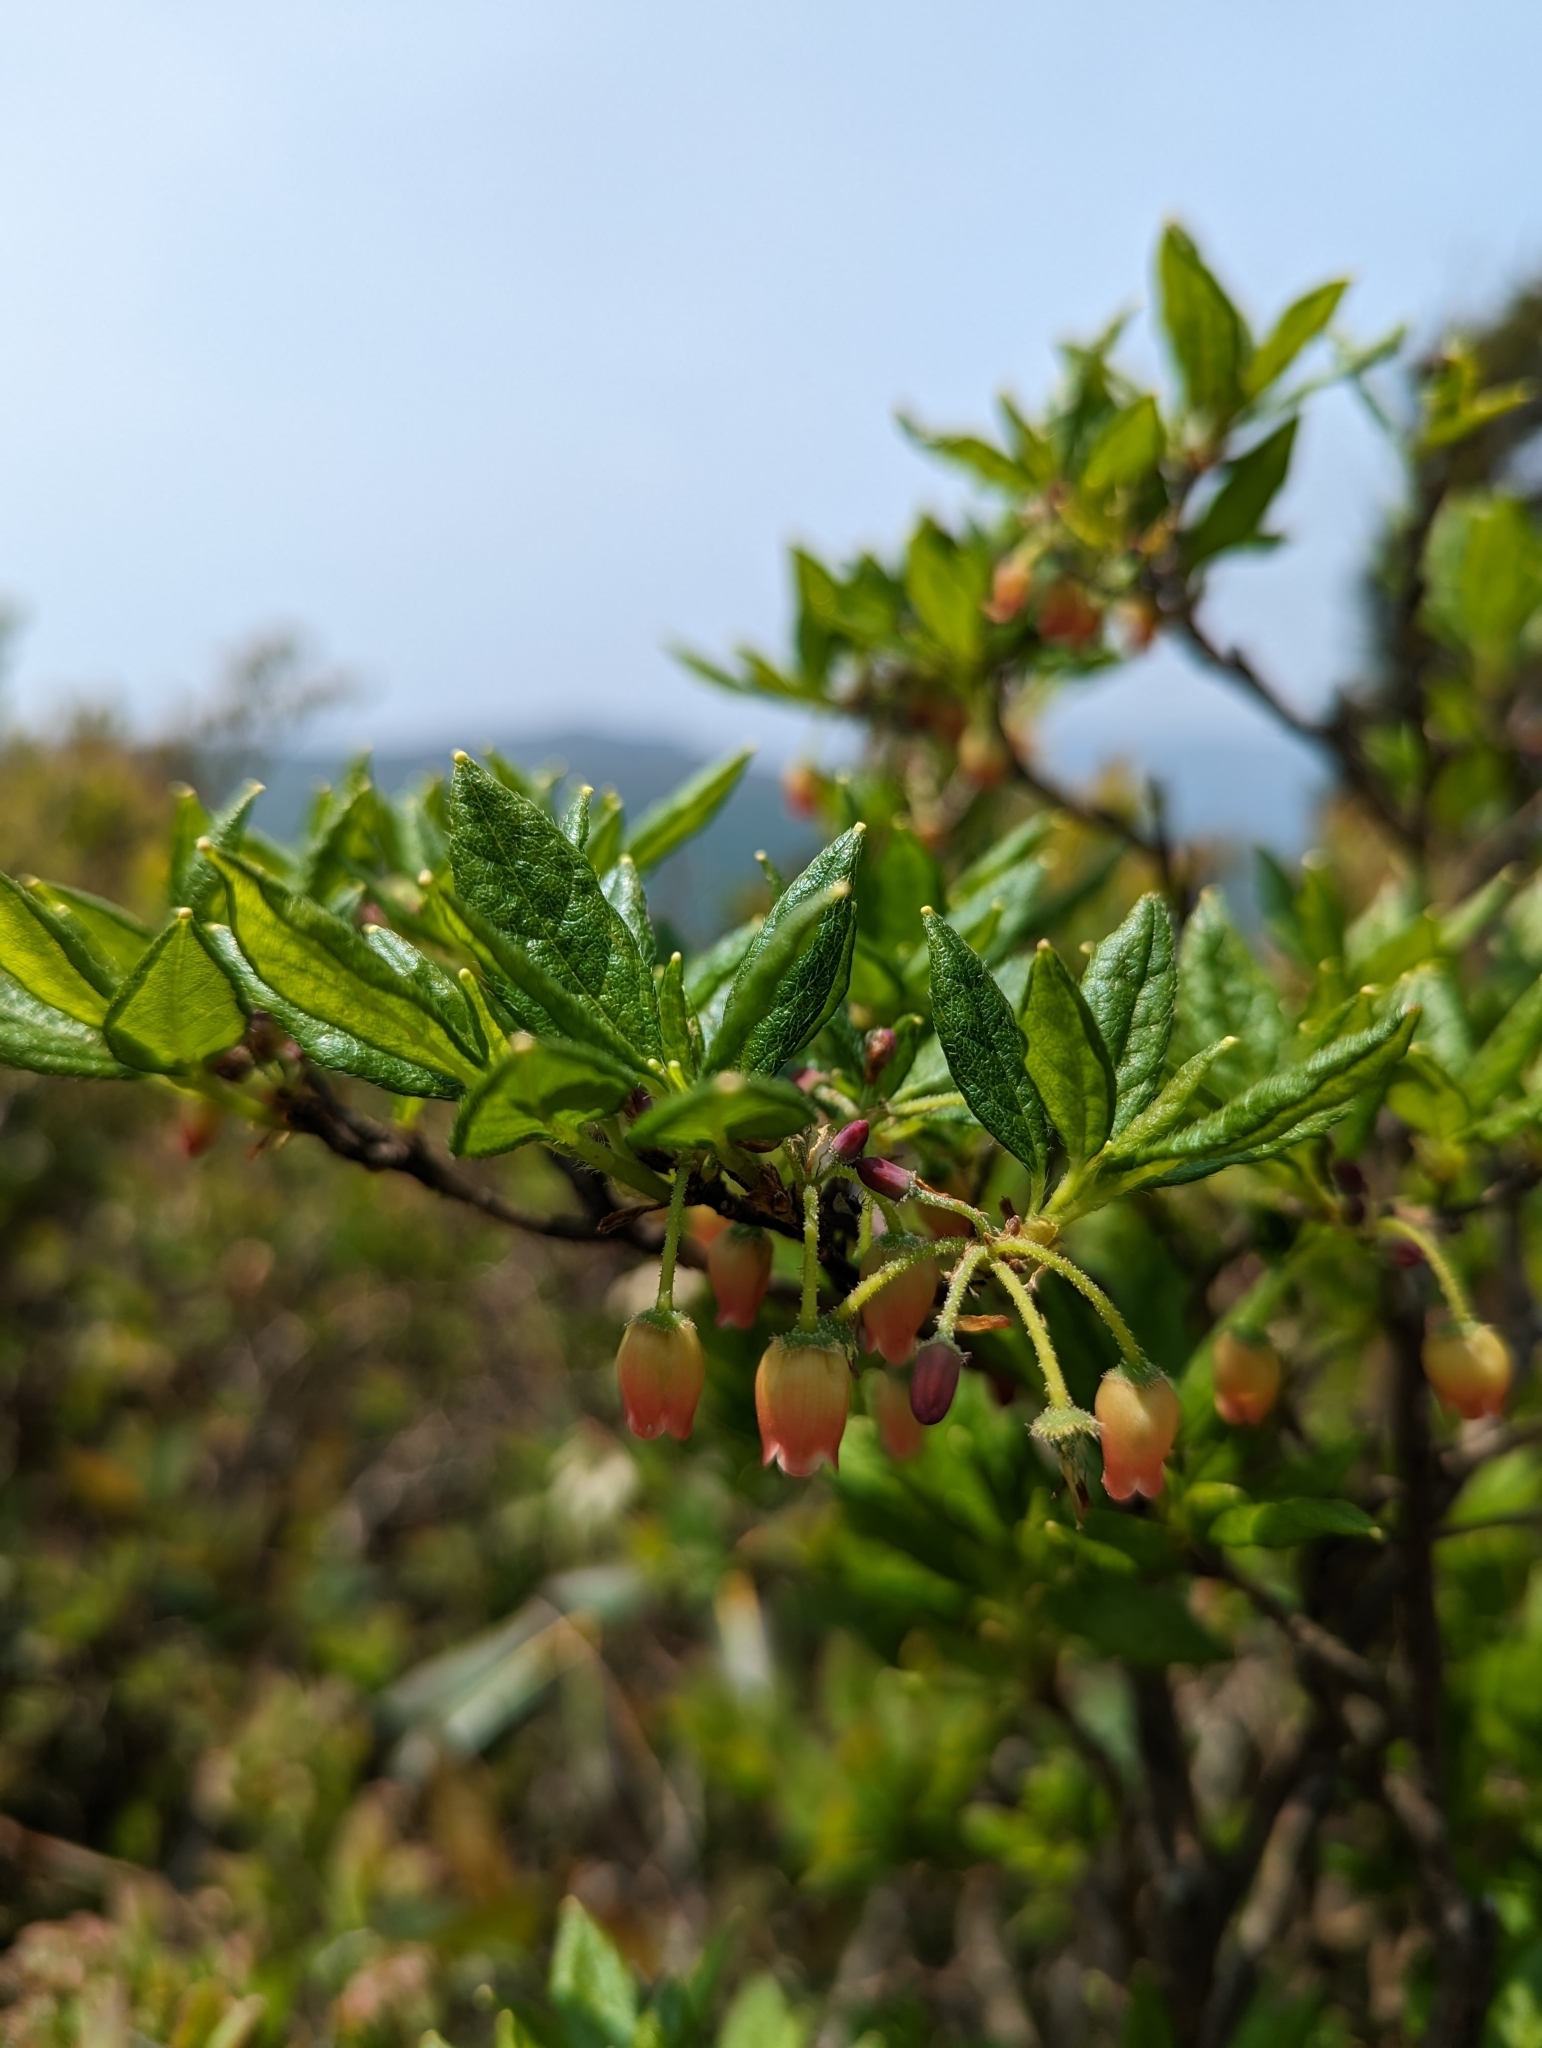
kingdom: Plantae
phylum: Tracheophyta
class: Magnoliopsida
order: Ericales
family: Ericaceae
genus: Rhododendron
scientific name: Rhododendron pilosum
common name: Hairy minniebush
